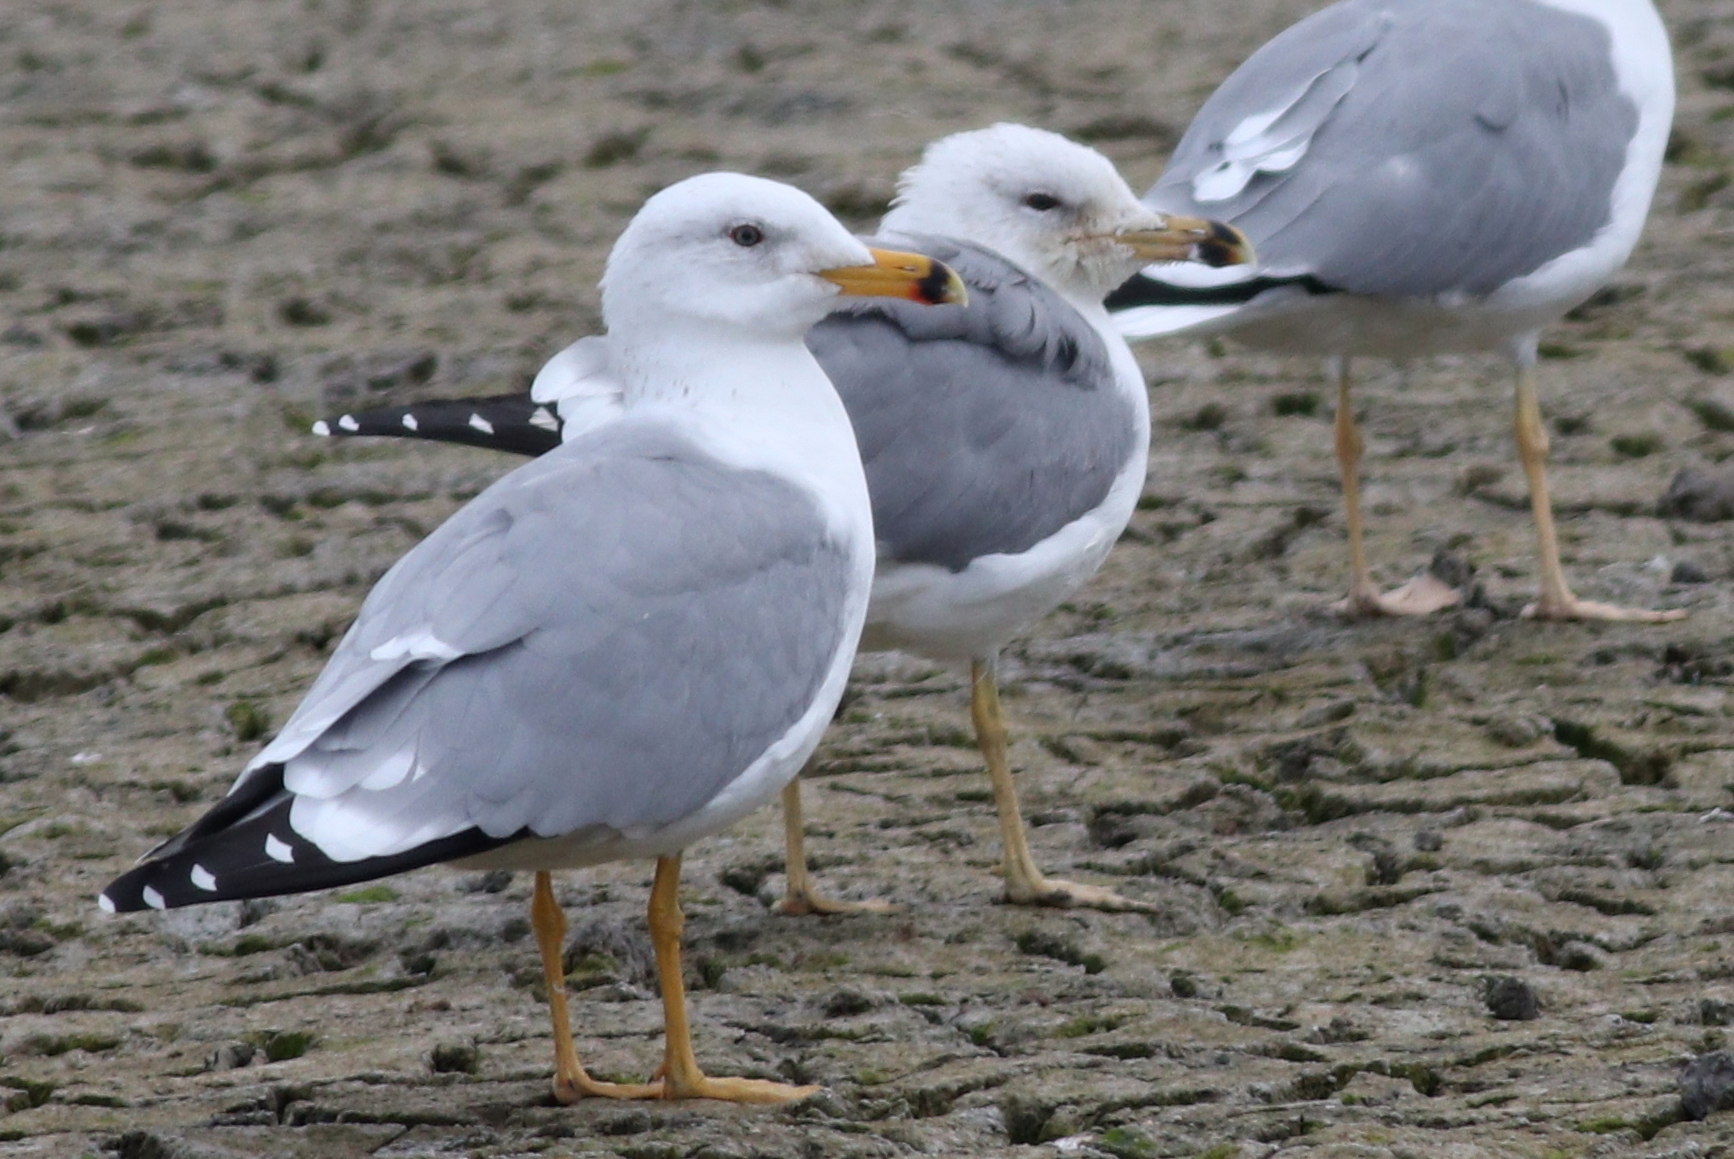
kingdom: Animalia
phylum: Chordata
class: Aves
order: Charadriiformes
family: Laridae
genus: Larus
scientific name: Larus armenicus
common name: Armenian gull
